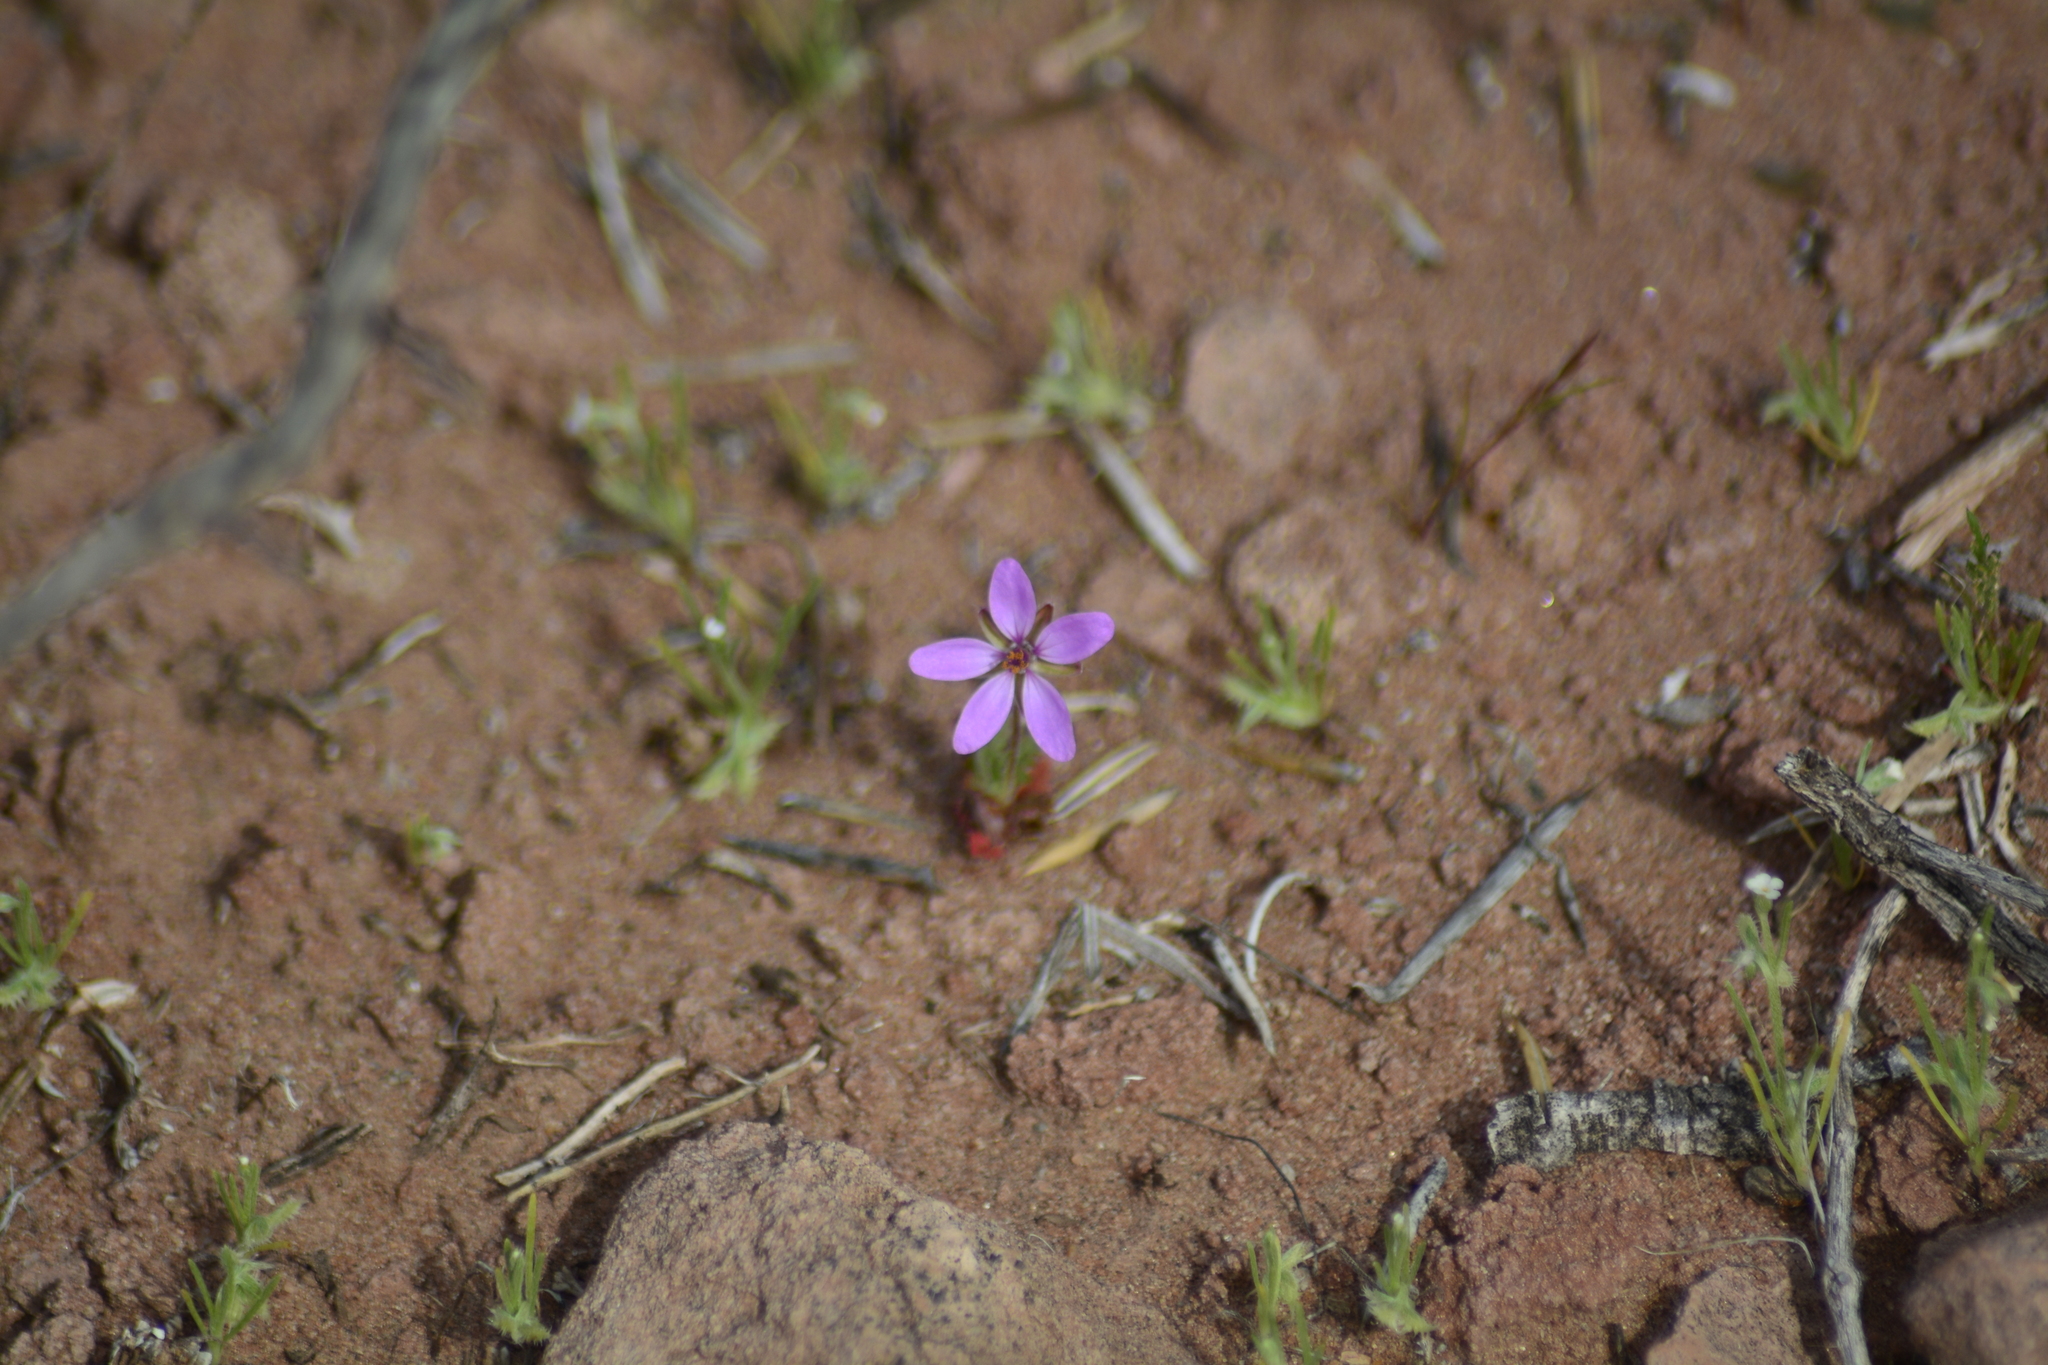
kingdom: Plantae
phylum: Tracheophyta
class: Magnoliopsida
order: Geraniales
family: Geraniaceae
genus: Erodium
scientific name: Erodium cicutarium
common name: Common stork's-bill
